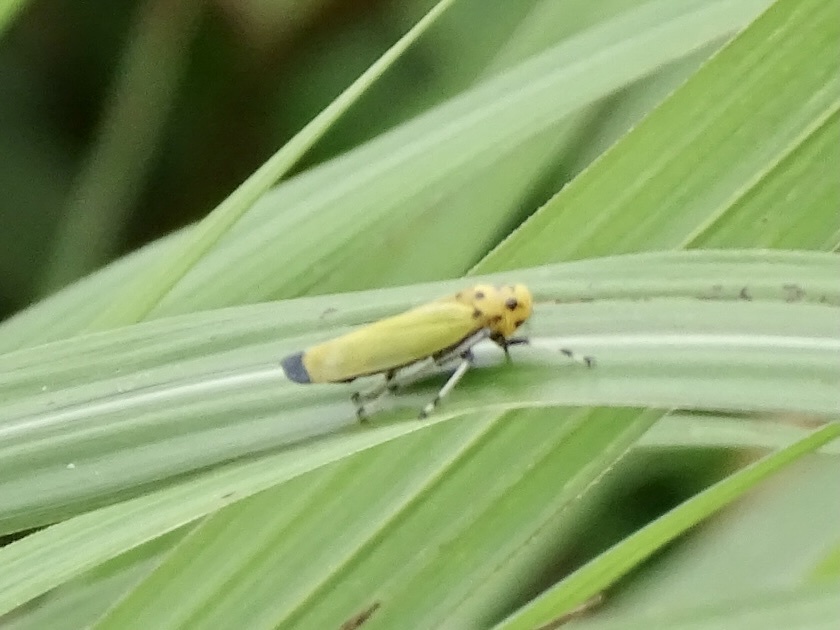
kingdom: Animalia
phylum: Arthropoda
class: Insecta
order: Hemiptera
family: Cicadellidae
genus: Bothrogonia
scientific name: Bothrogonia ferruginea
